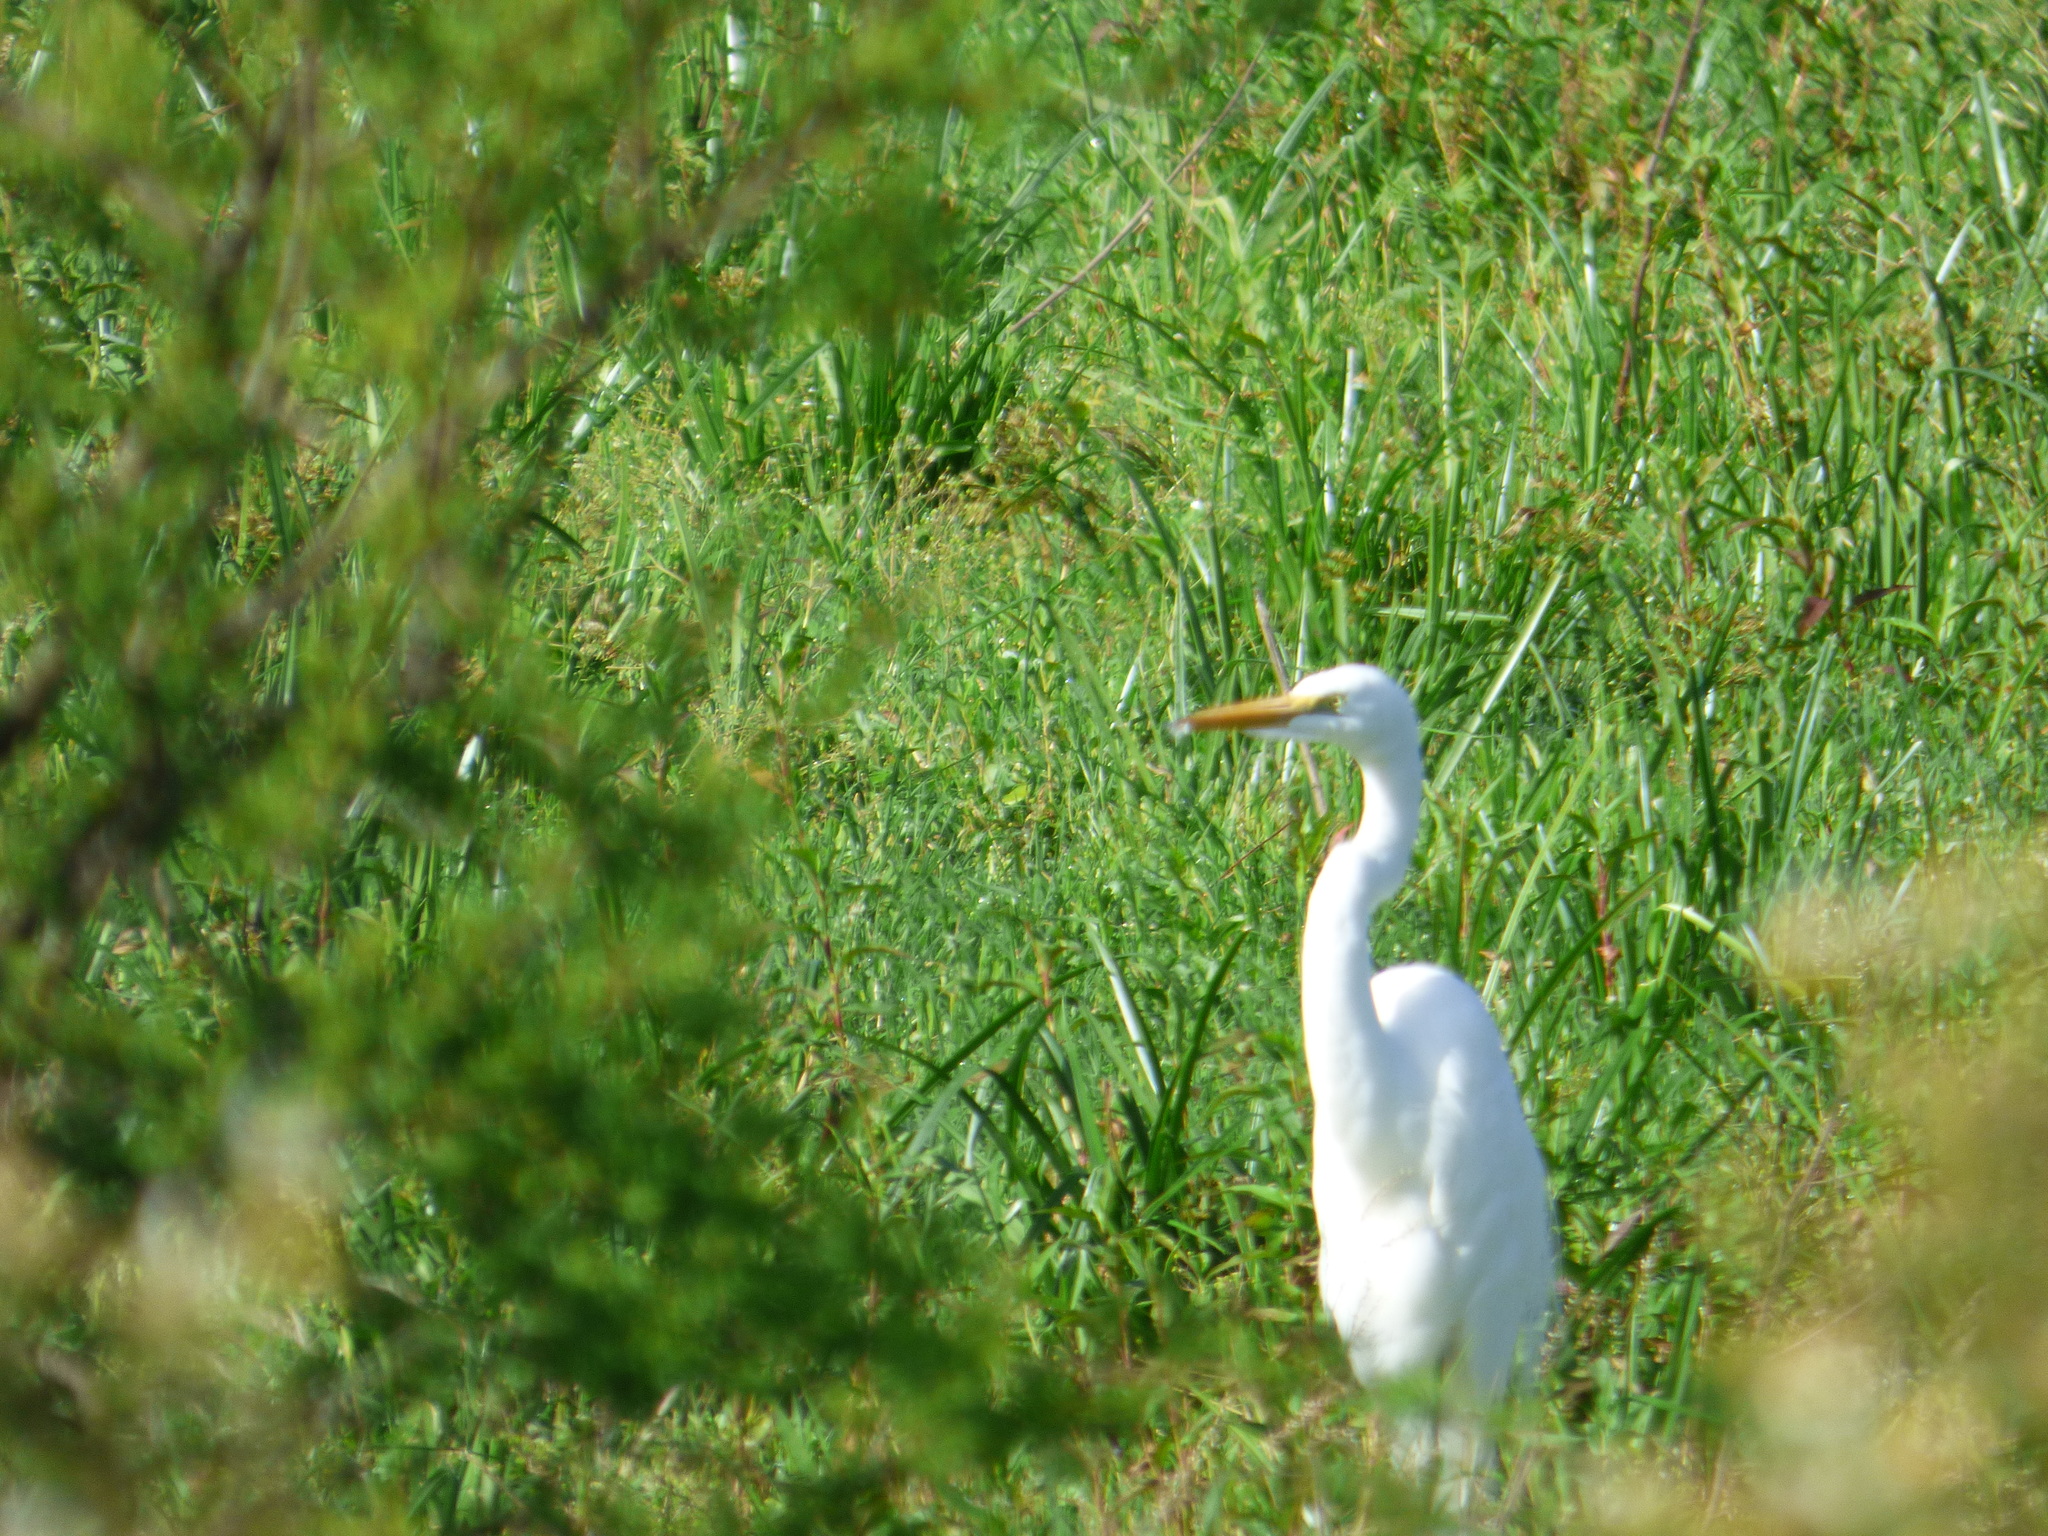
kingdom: Animalia
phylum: Chordata
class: Aves
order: Pelecaniformes
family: Ardeidae
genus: Ardea
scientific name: Ardea alba
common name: Great egret
